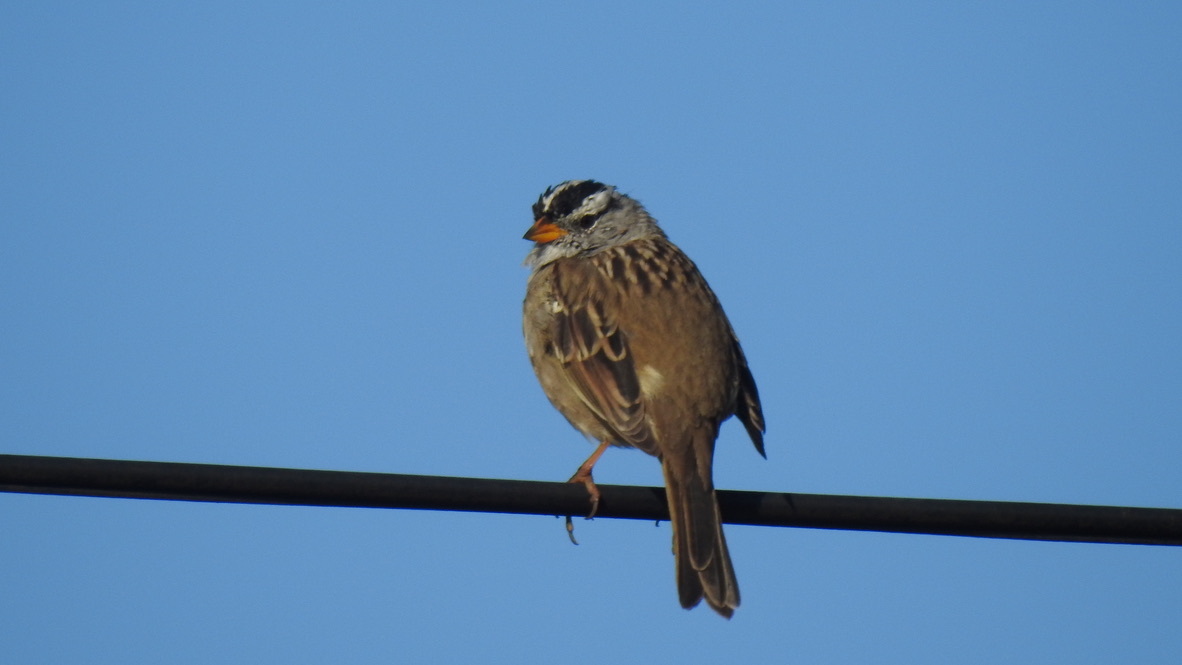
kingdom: Animalia
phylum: Chordata
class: Aves
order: Passeriformes
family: Passerellidae
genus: Zonotrichia
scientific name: Zonotrichia leucophrys
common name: White-crowned sparrow
